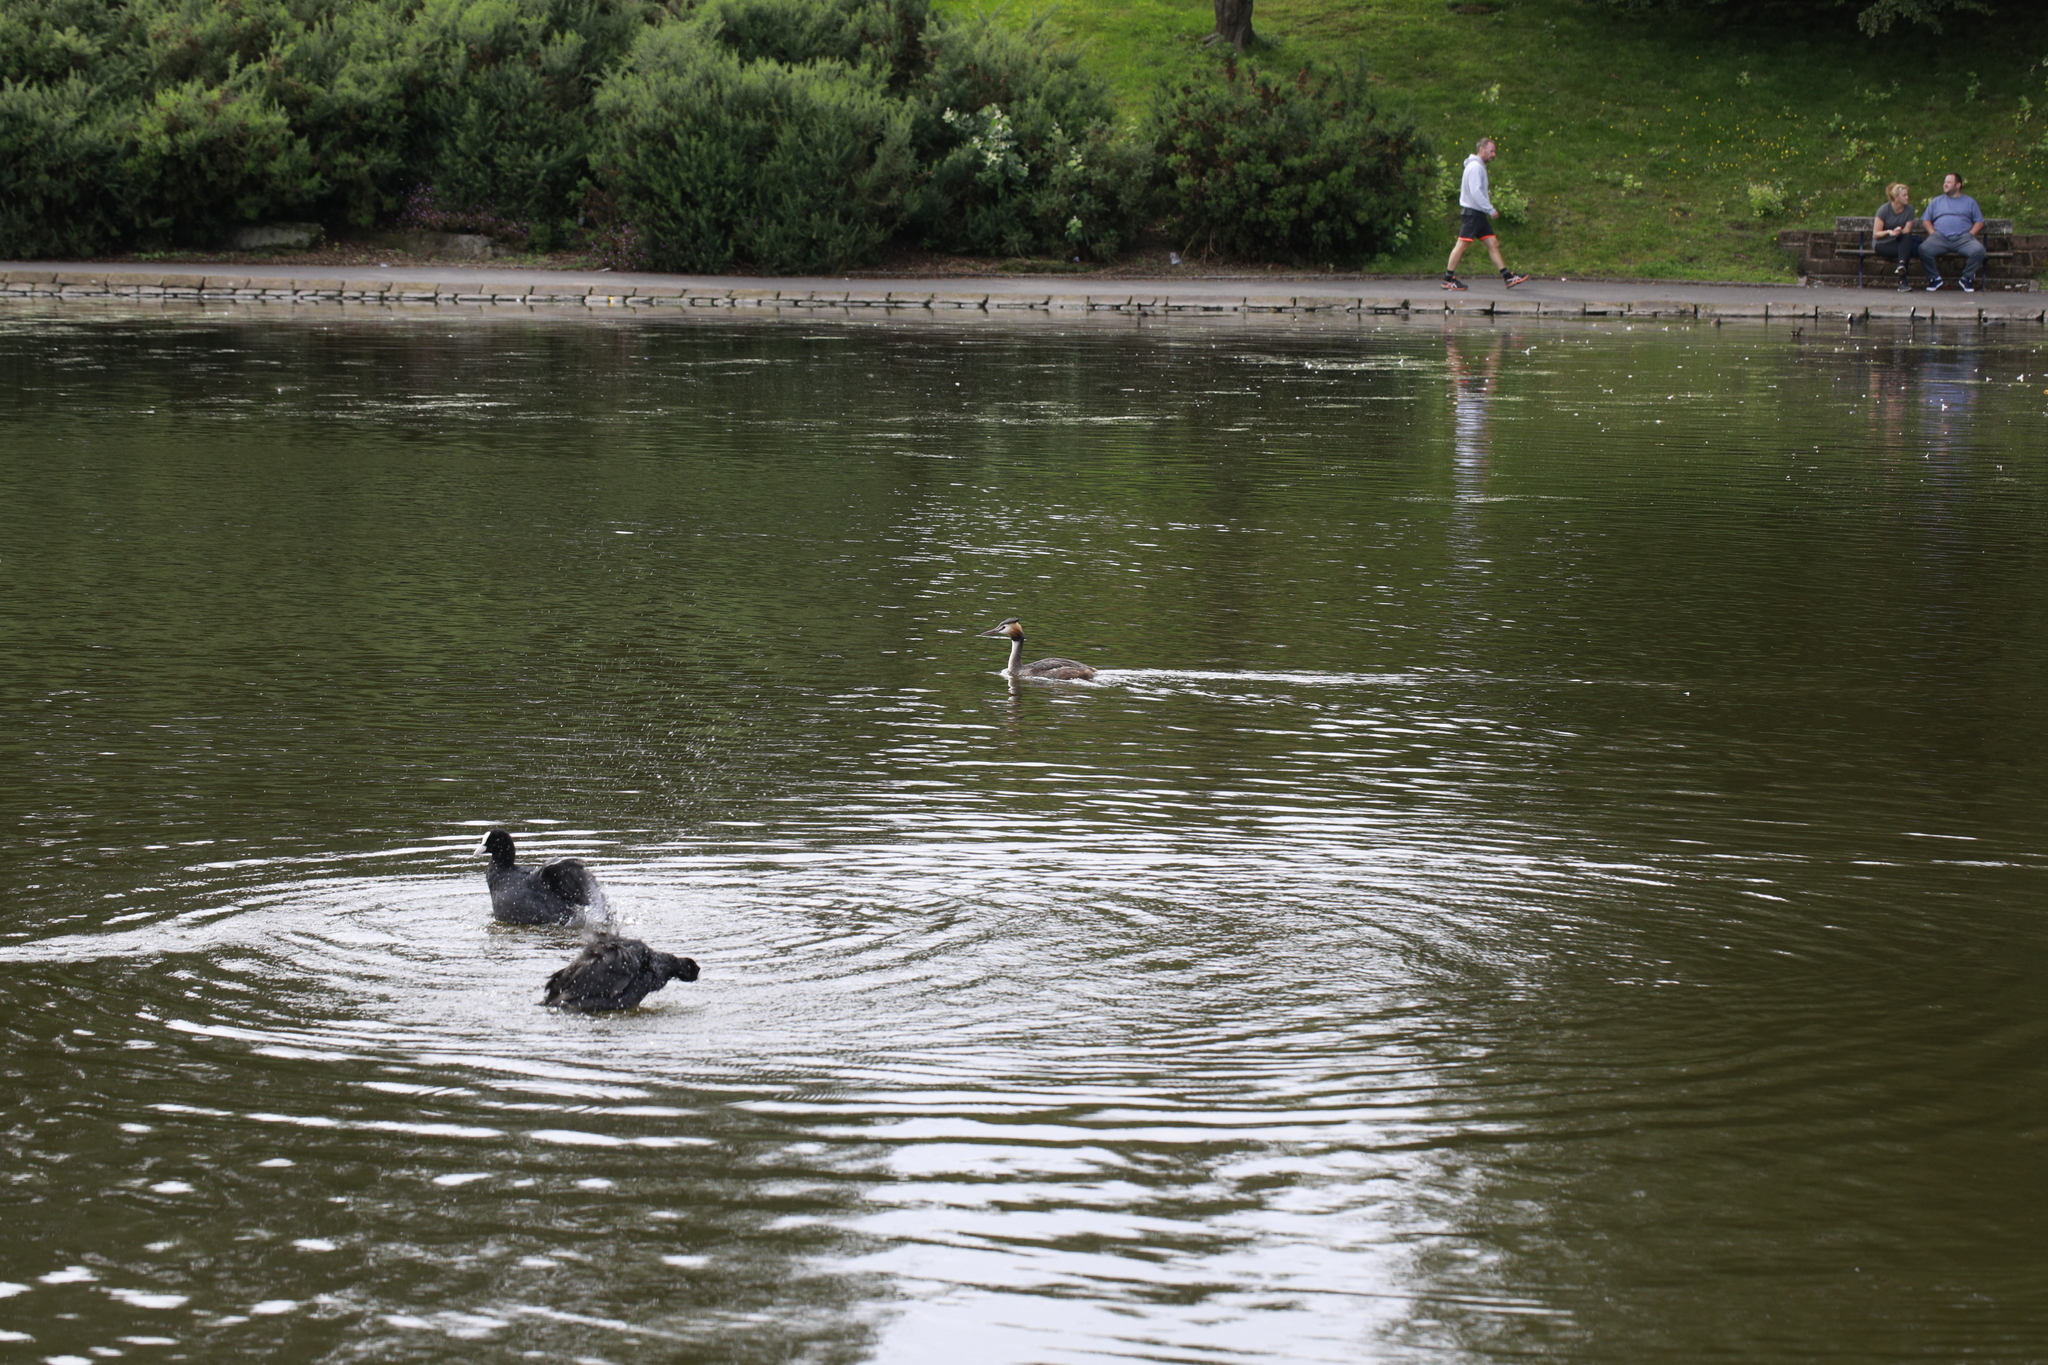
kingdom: Animalia
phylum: Chordata
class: Aves
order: Podicipediformes
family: Podicipedidae
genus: Podiceps
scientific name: Podiceps cristatus
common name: Great crested grebe
